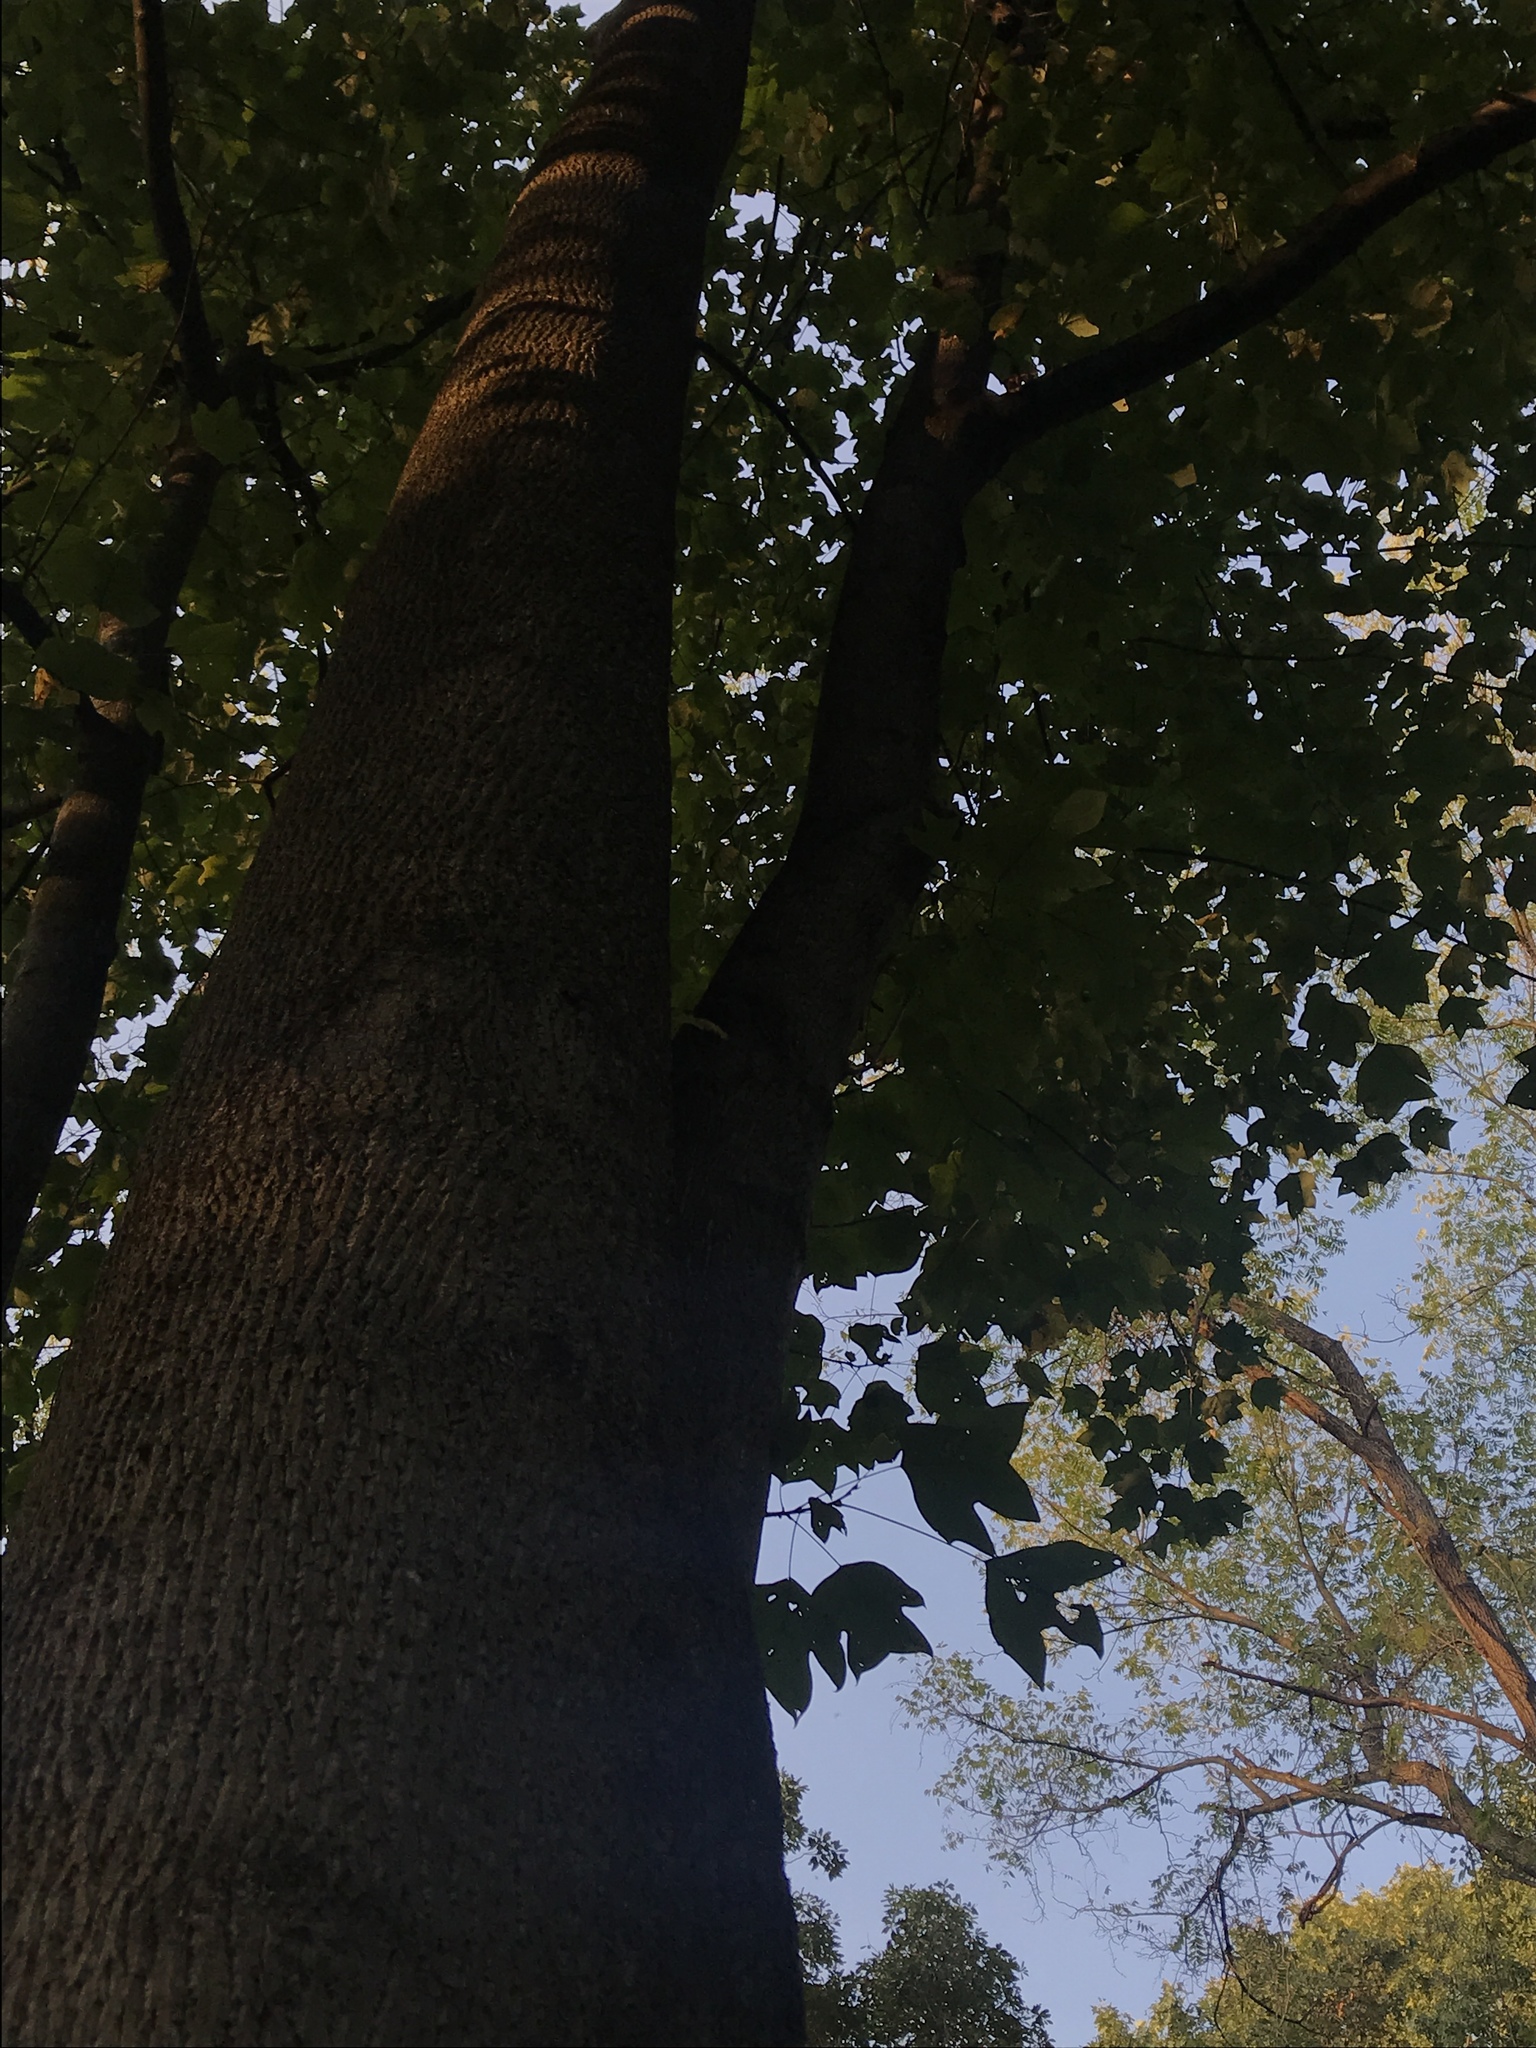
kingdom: Plantae
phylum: Tracheophyta
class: Magnoliopsida
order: Magnoliales
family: Magnoliaceae
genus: Liriodendron
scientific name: Liriodendron tulipifera
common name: Tulip tree
